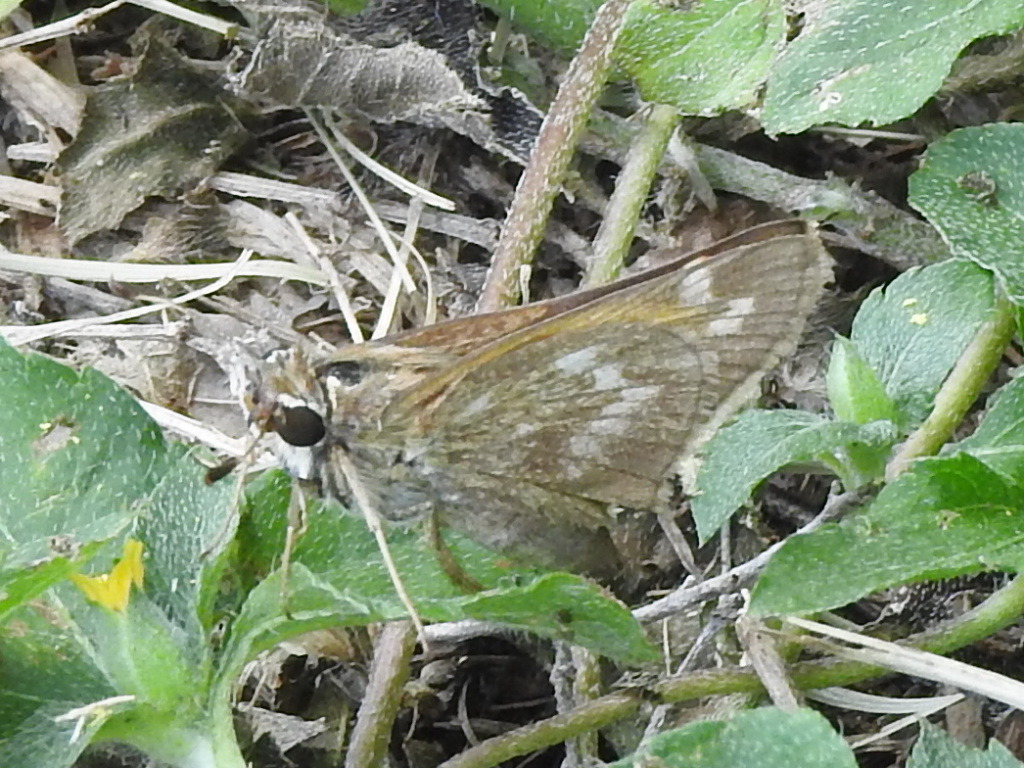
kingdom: Animalia
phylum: Arthropoda
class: Insecta
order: Lepidoptera
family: Hesperiidae
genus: Atalopedes
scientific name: Atalopedes
